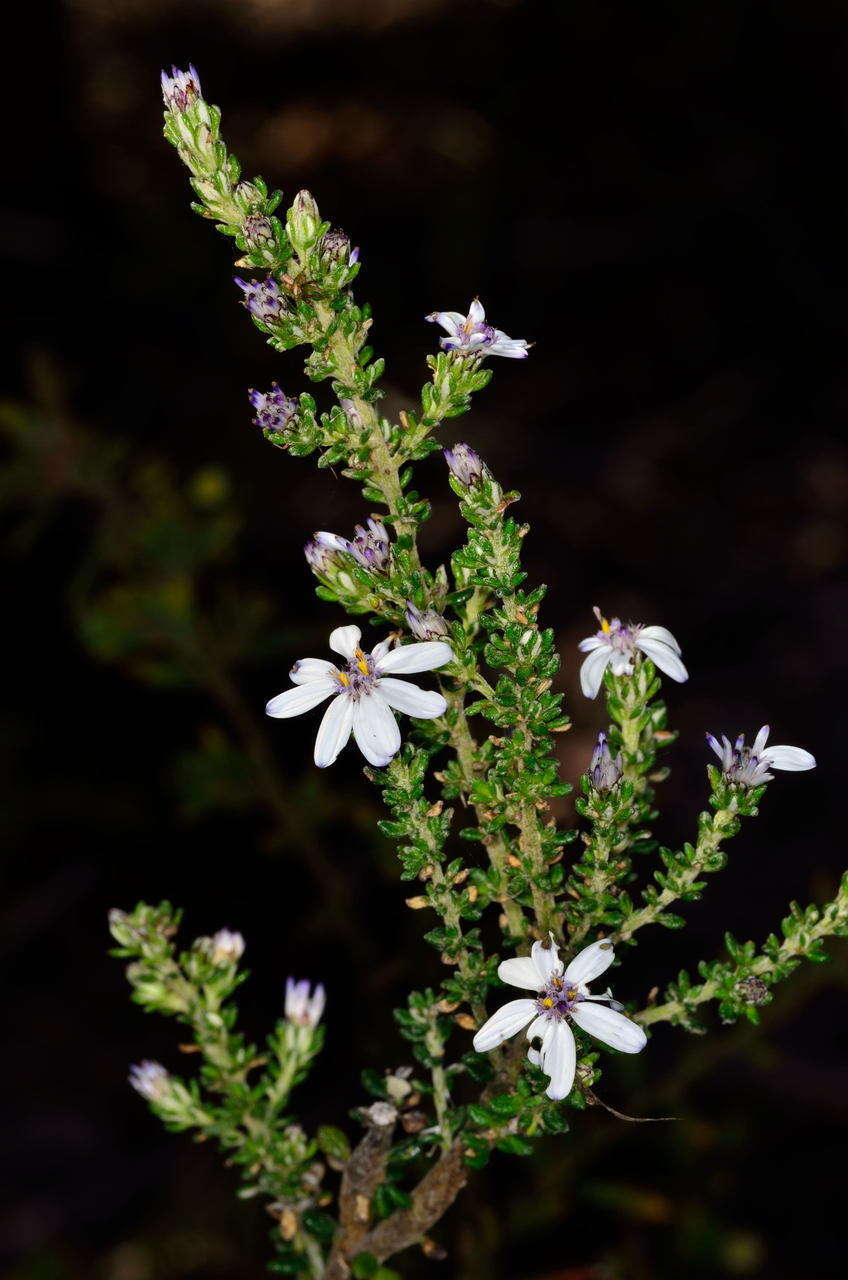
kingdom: Plantae
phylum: Tracheophyta
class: Magnoliopsida
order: Asterales
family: Asteraceae
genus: Olearia
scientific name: Olearia minor
